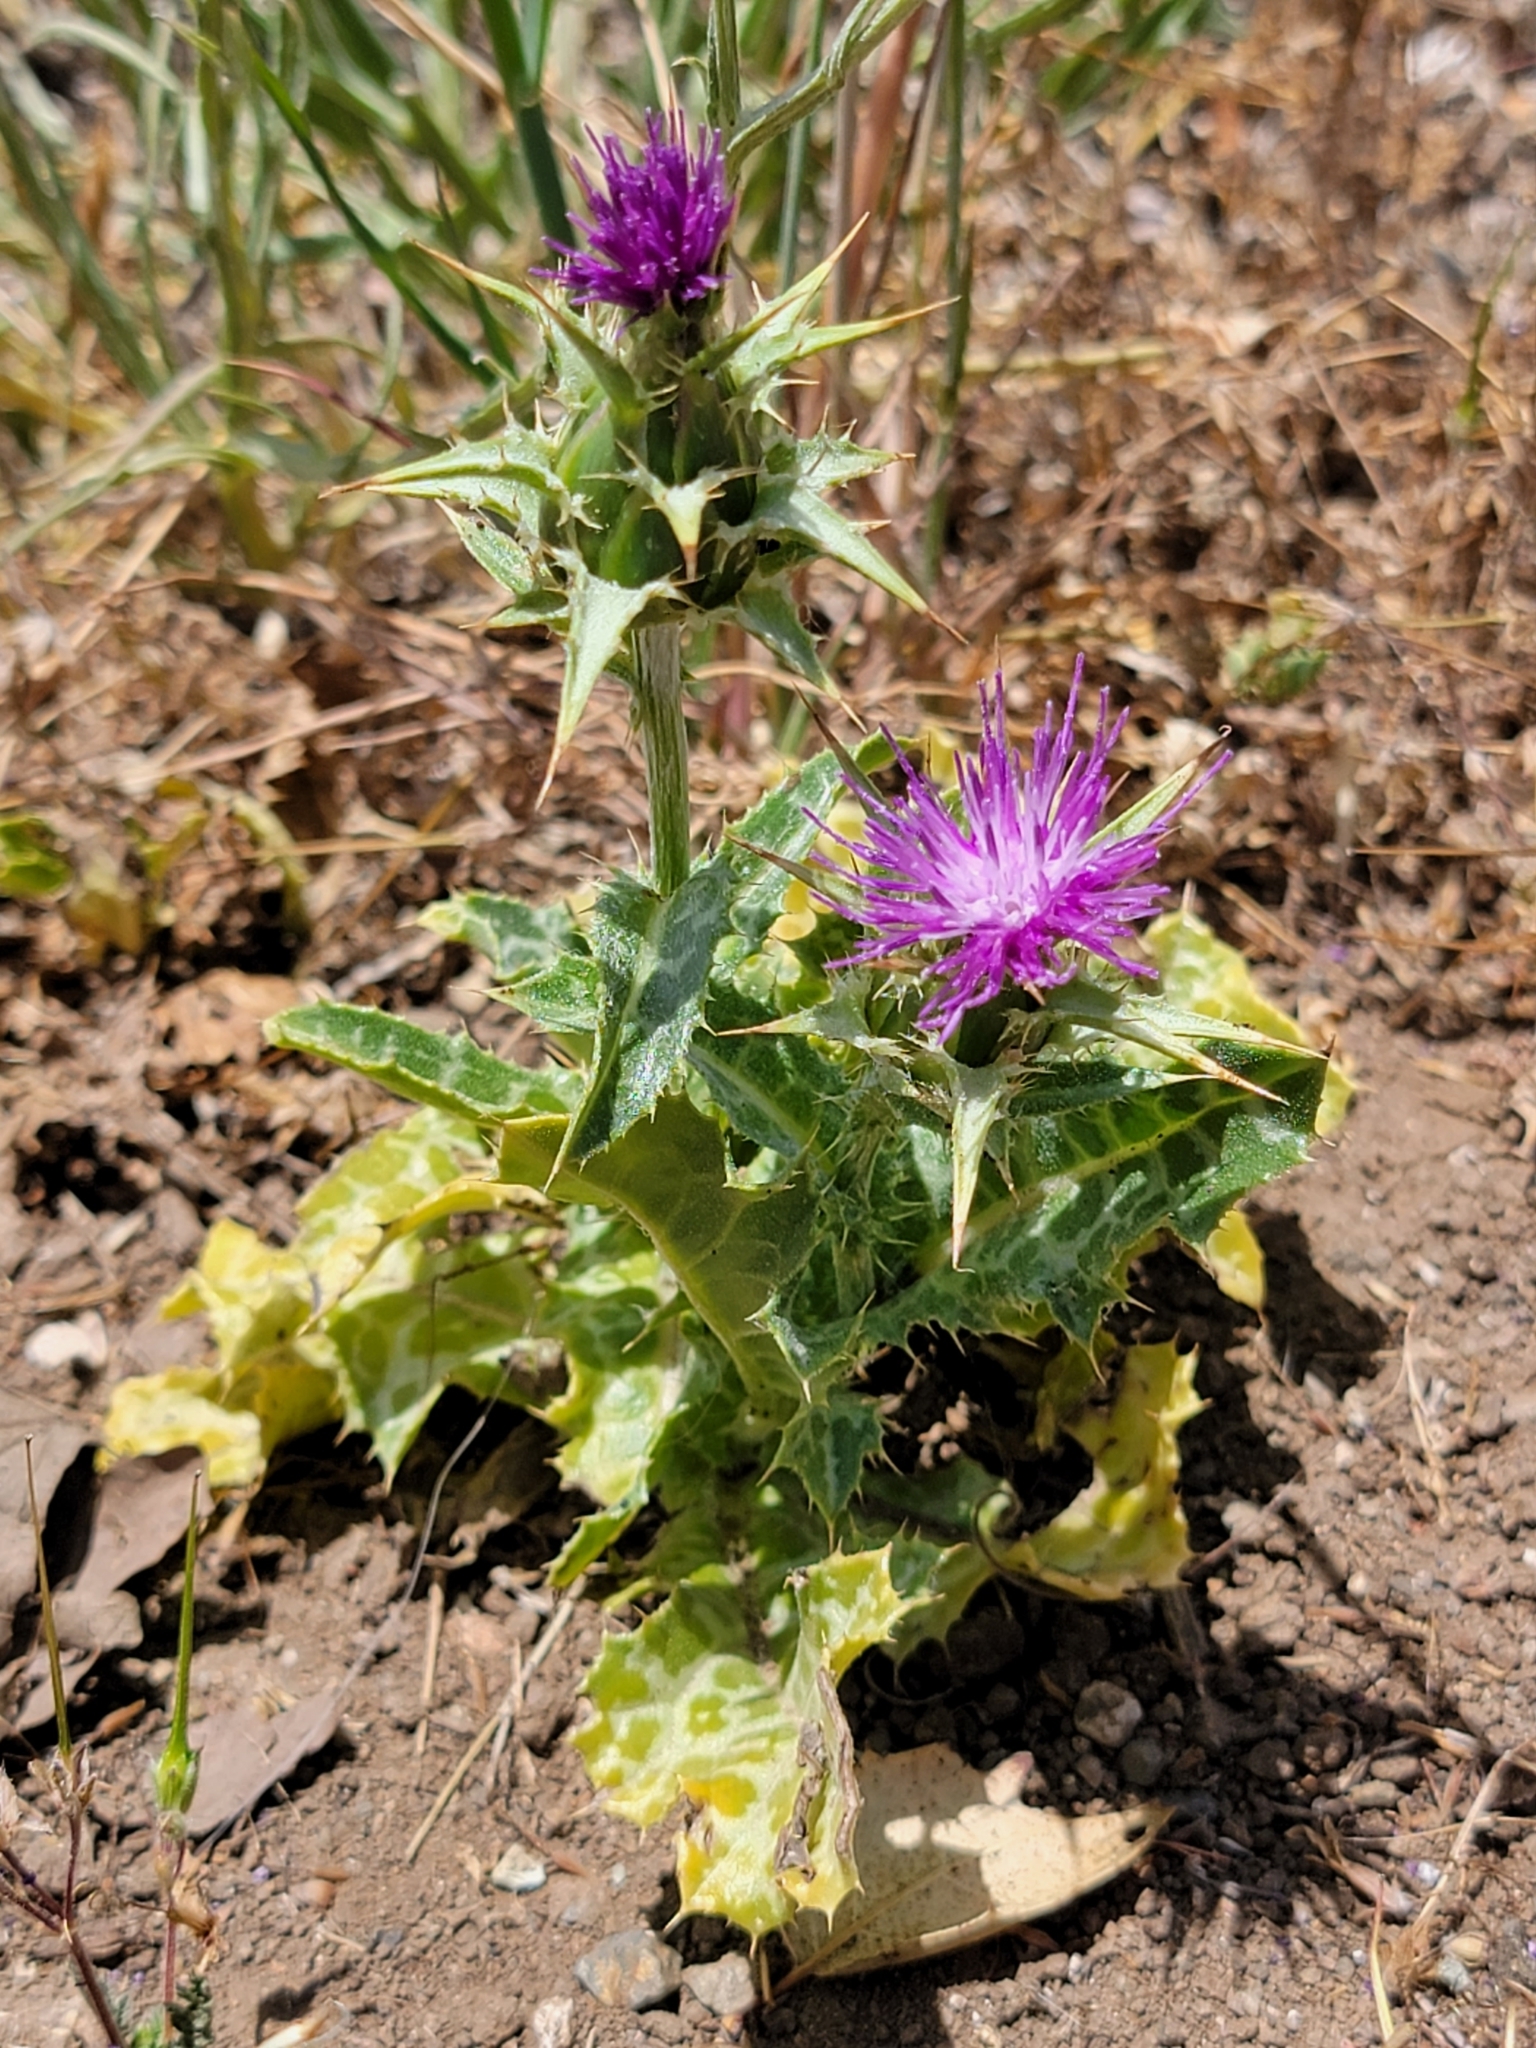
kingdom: Plantae
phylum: Tracheophyta
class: Magnoliopsida
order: Asterales
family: Asteraceae
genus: Silybum
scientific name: Silybum marianum
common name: Milk thistle
